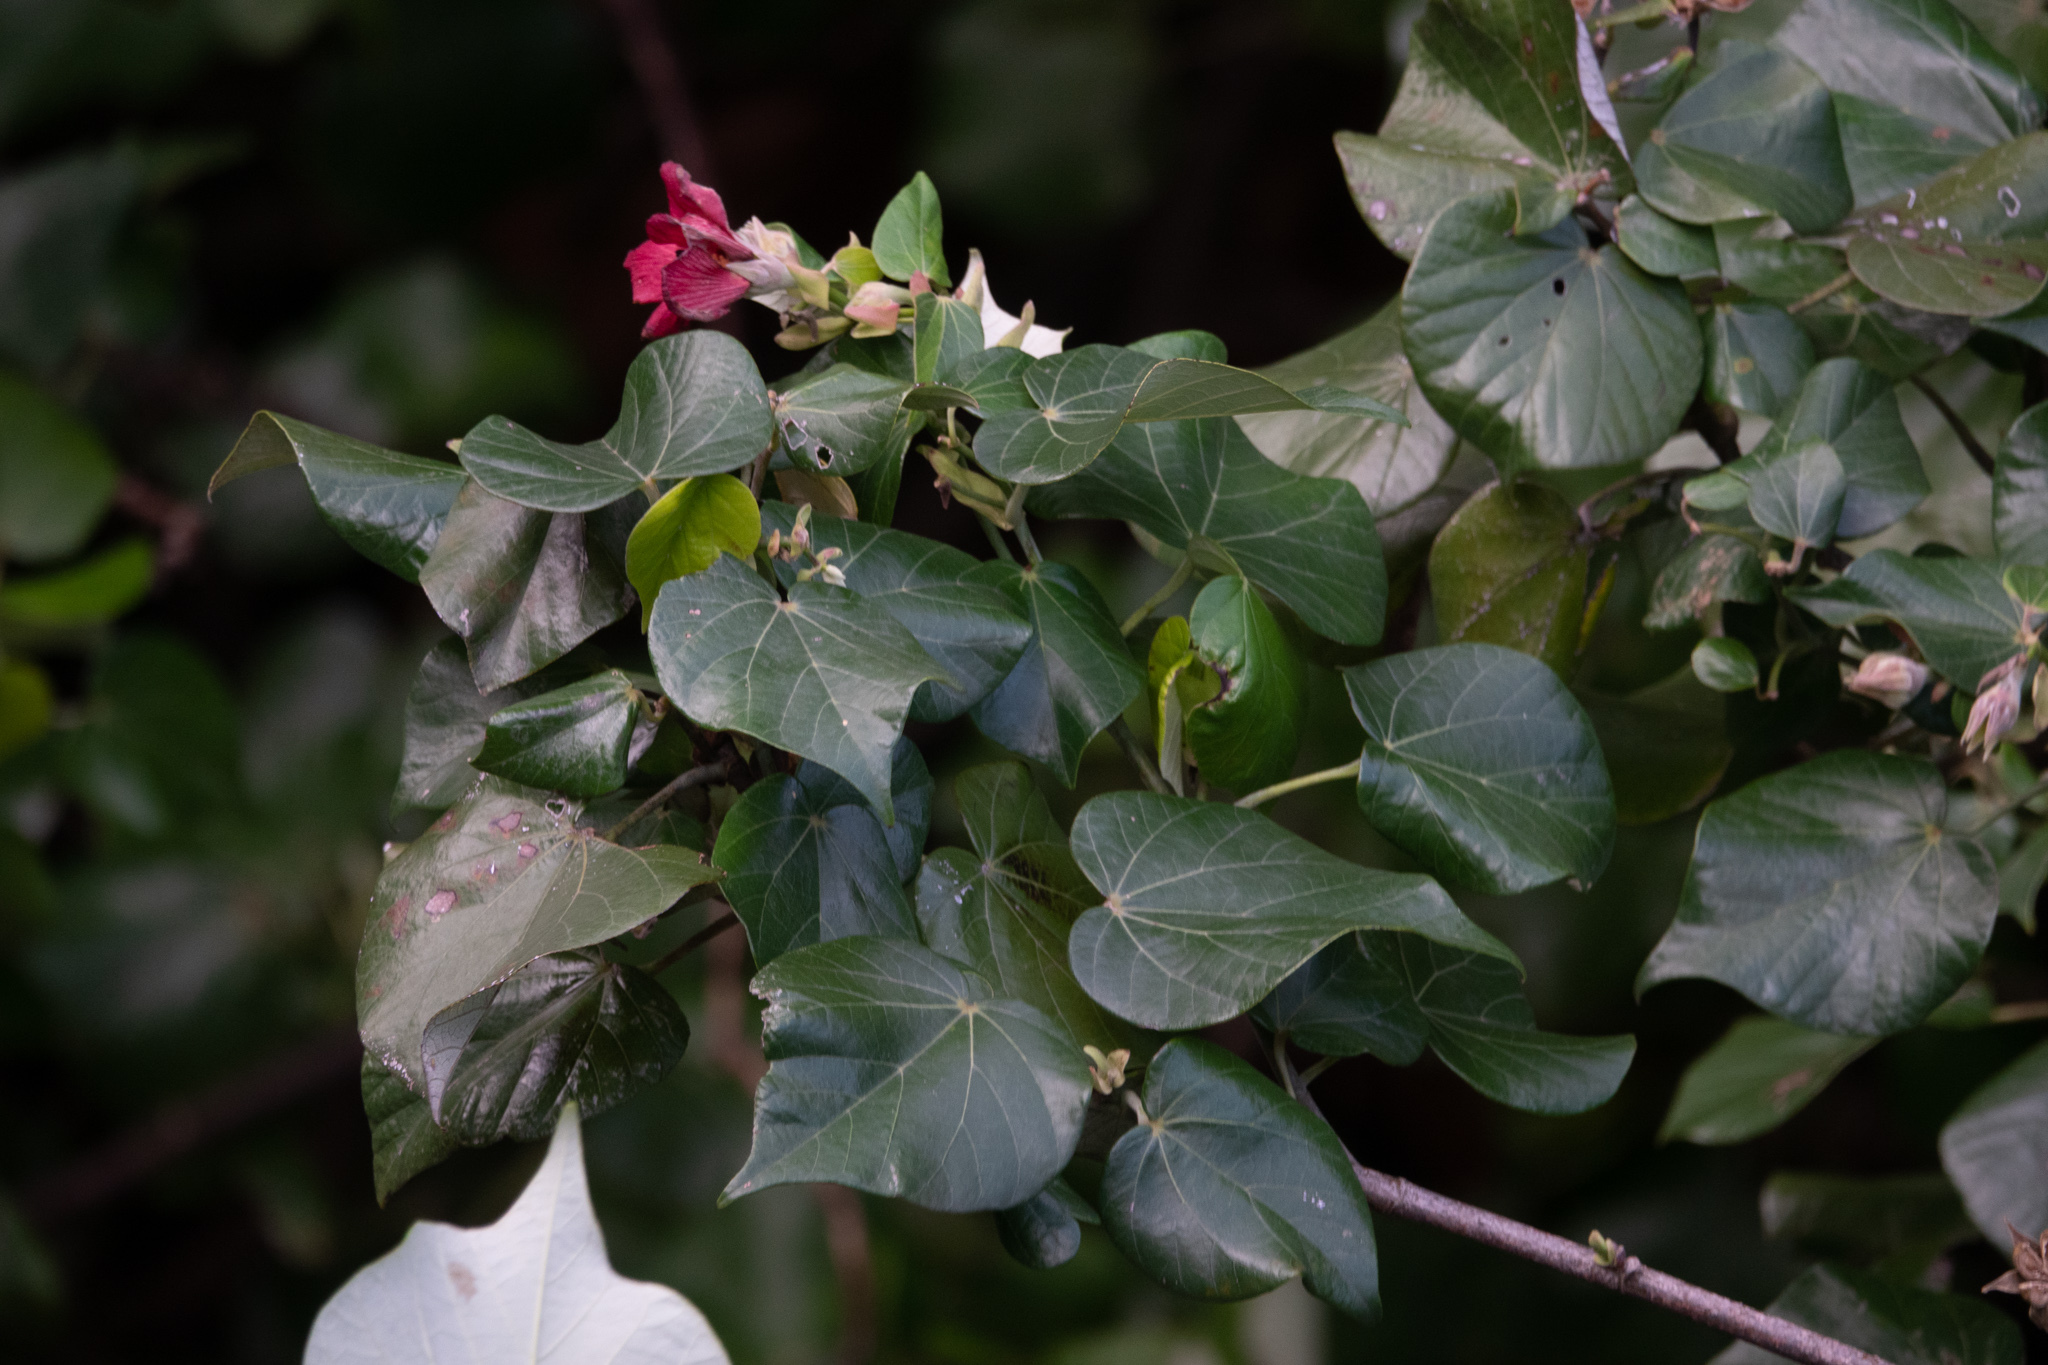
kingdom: Plantae
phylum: Tracheophyta
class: Magnoliopsida
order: Malvales
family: Malvaceae
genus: Talipariti
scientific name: Talipariti tiliaceum
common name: Sea hibiscus
